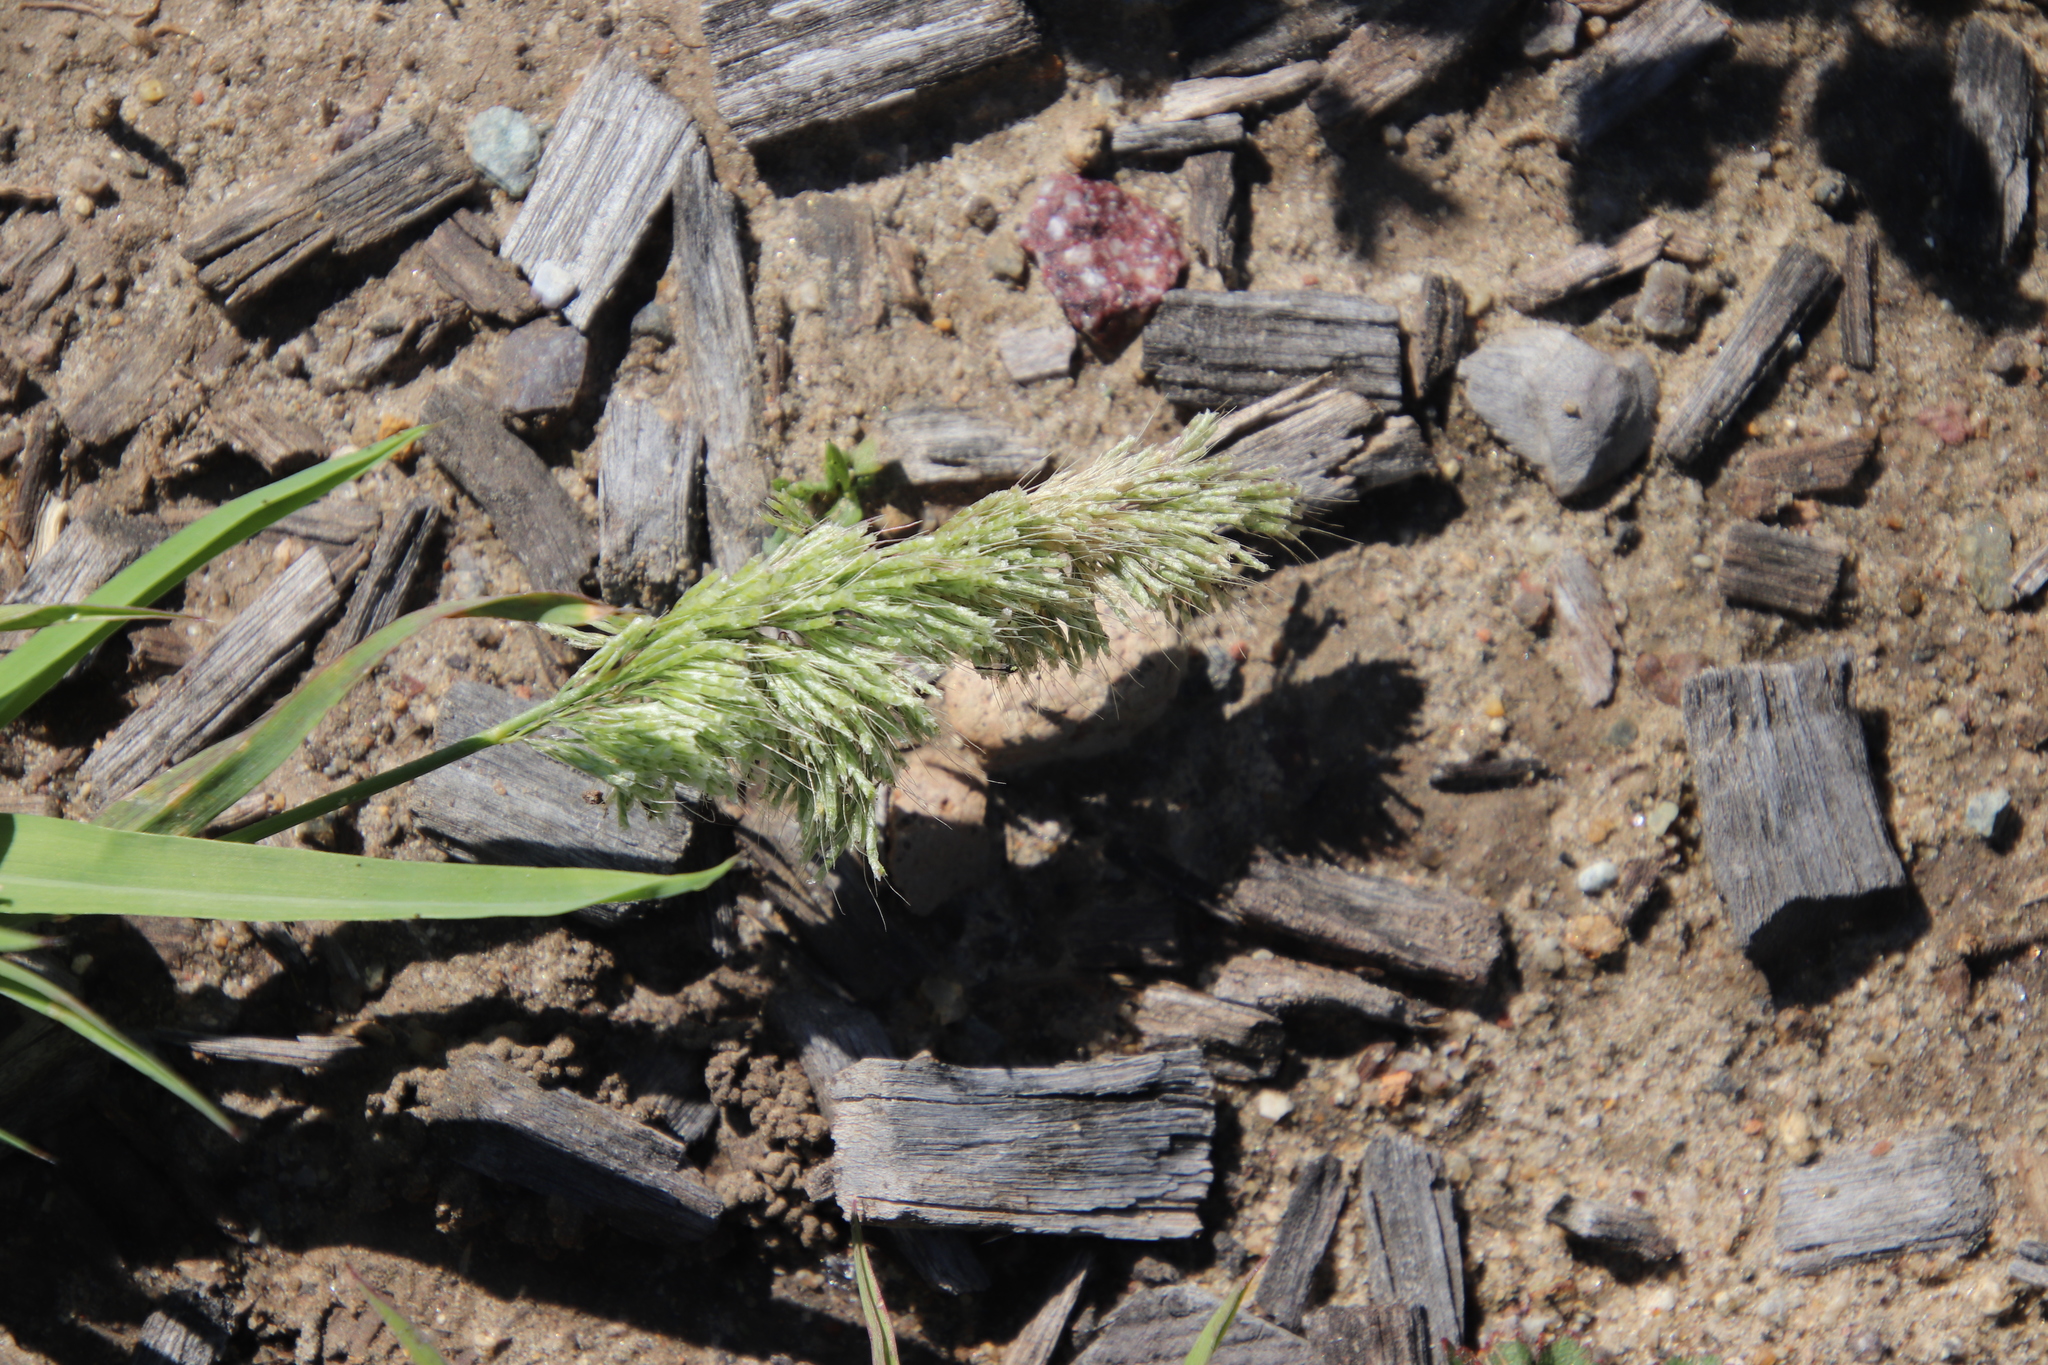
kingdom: Plantae
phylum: Tracheophyta
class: Liliopsida
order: Poales
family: Poaceae
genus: Lamarckia
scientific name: Lamarckia aurea
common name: Golden dog's-tail
